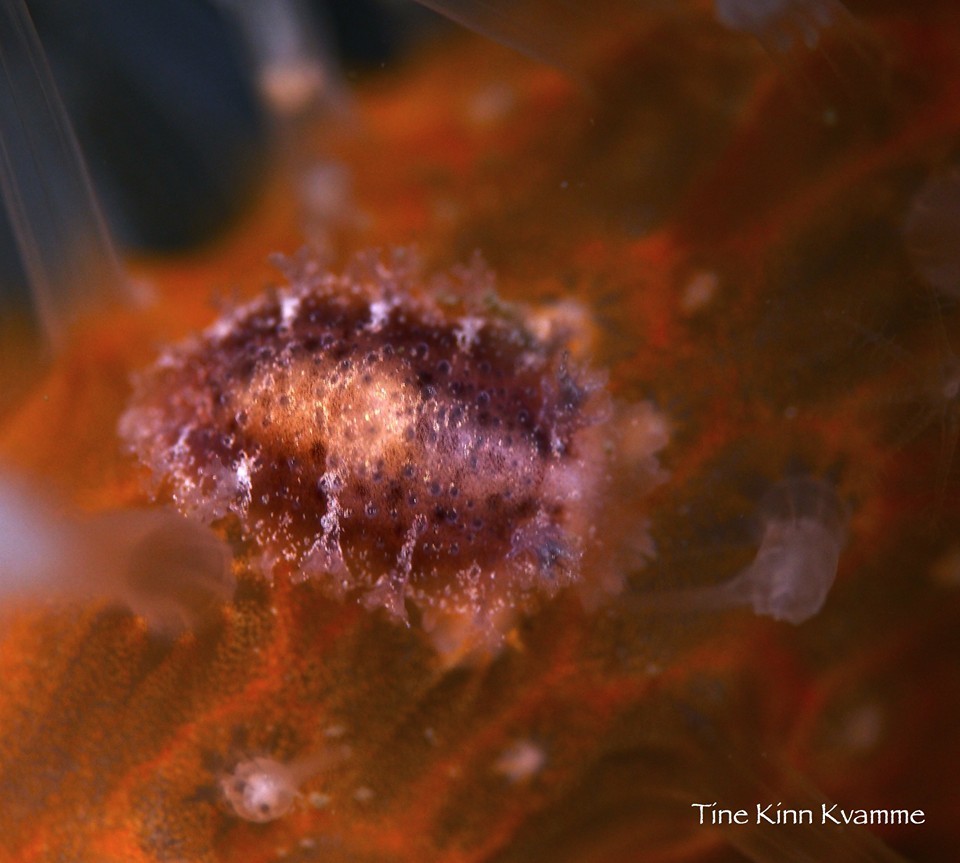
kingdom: Animalia
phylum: Mollusca
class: Gastropoda
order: Nudibranchia
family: Tritoniidae
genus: Tritonia
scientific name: Tritonia hombergii
